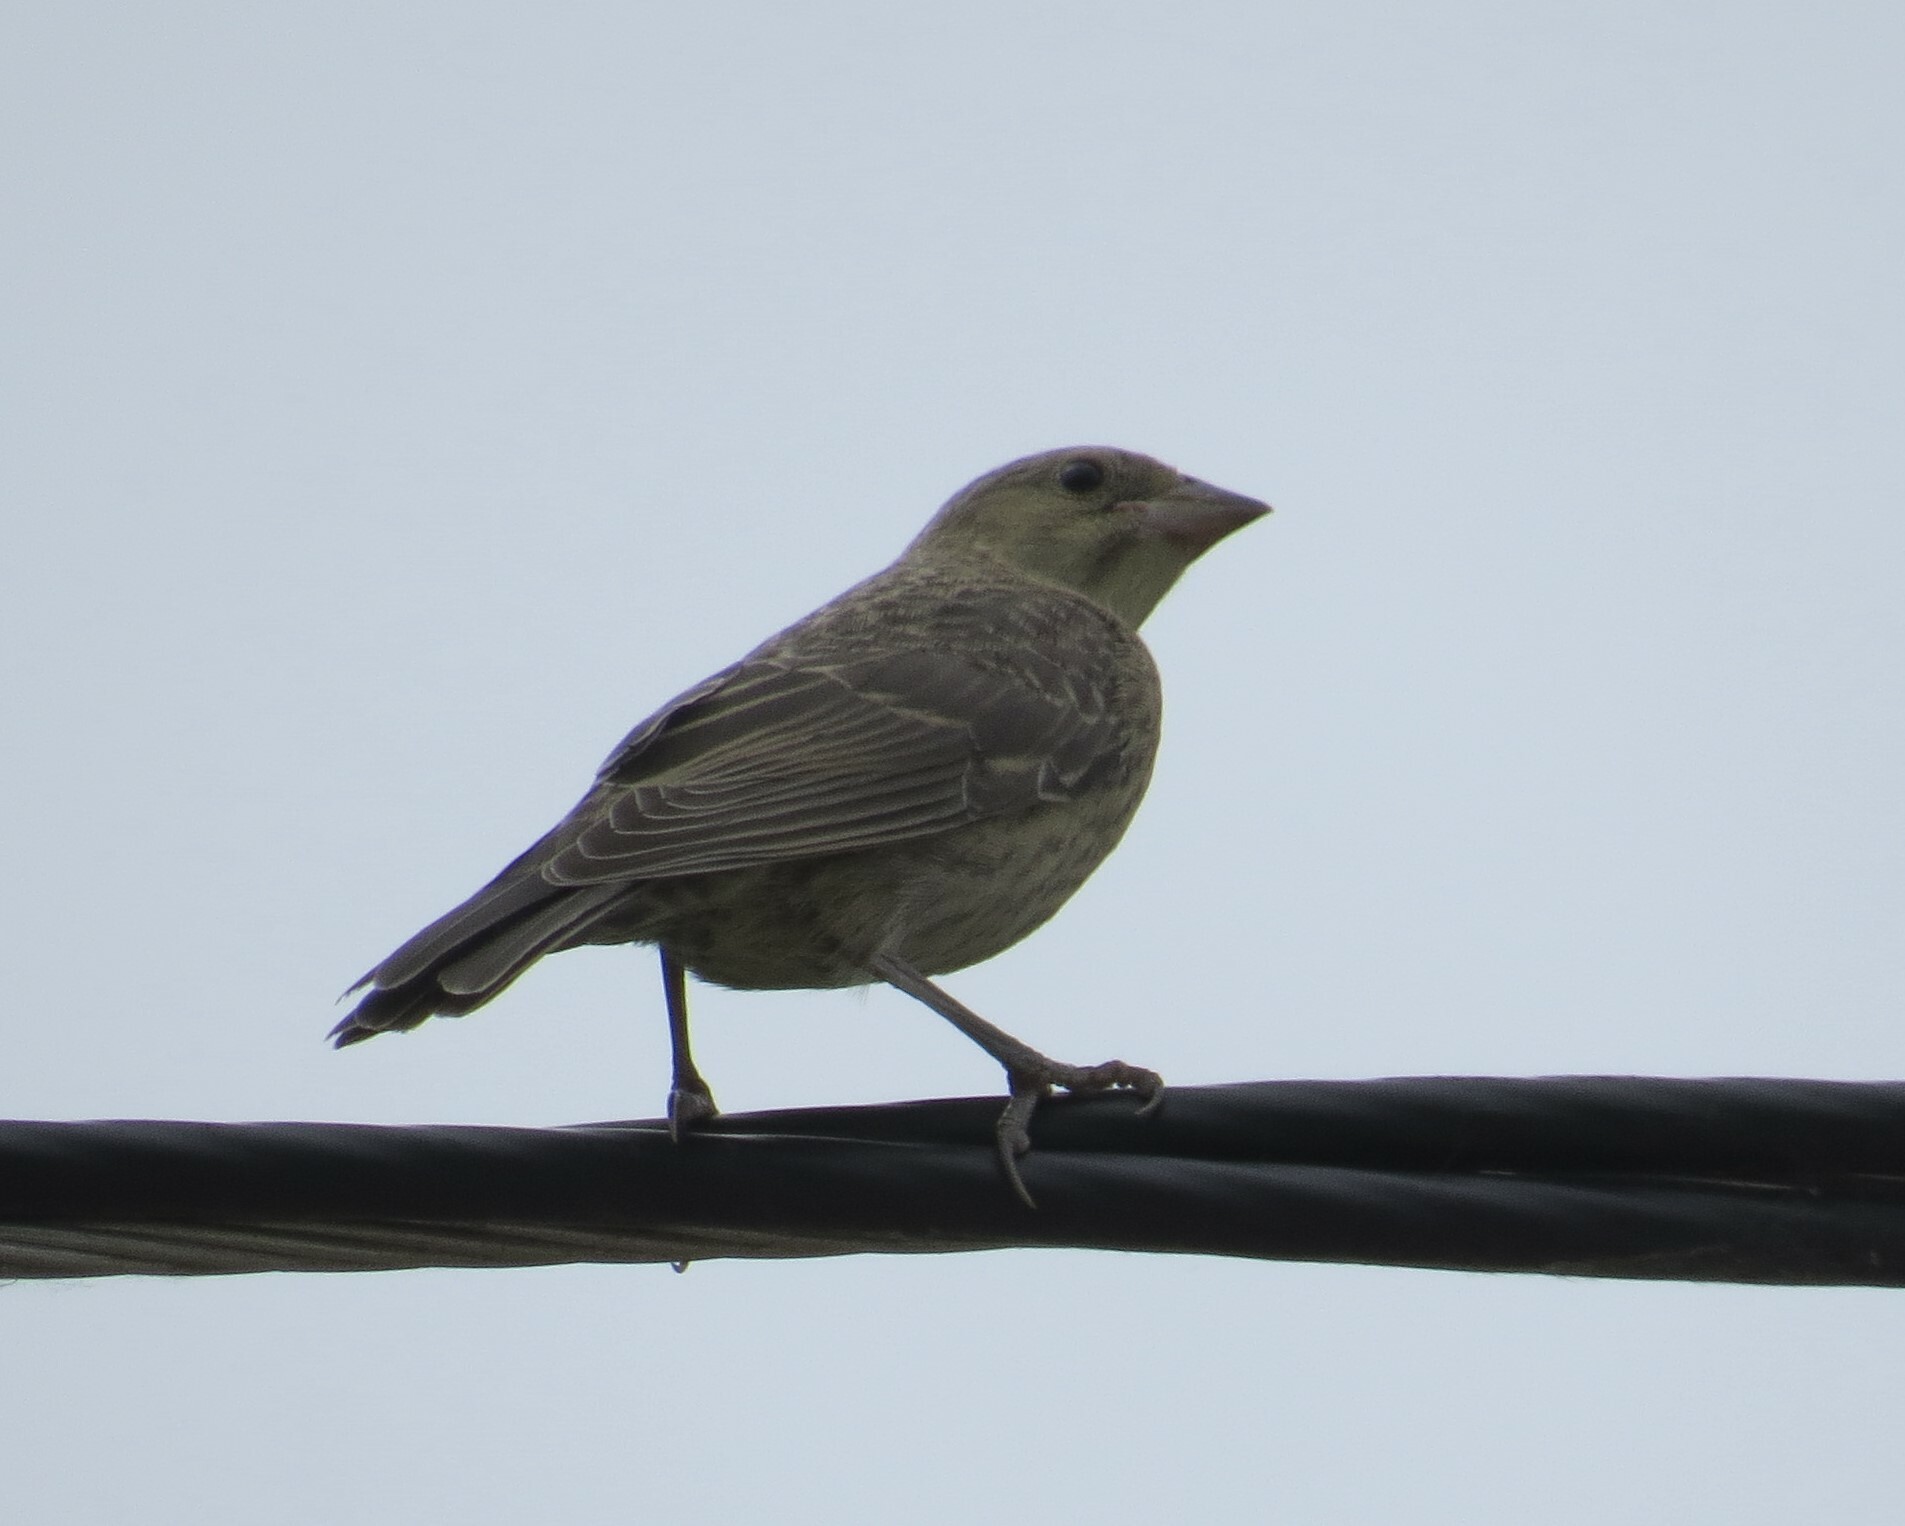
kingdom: Animalia
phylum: Chordata
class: Aves
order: Passeriformes
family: Icteridae
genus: Molothrus
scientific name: Molothrus ater
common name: Brown-headed cowbird
